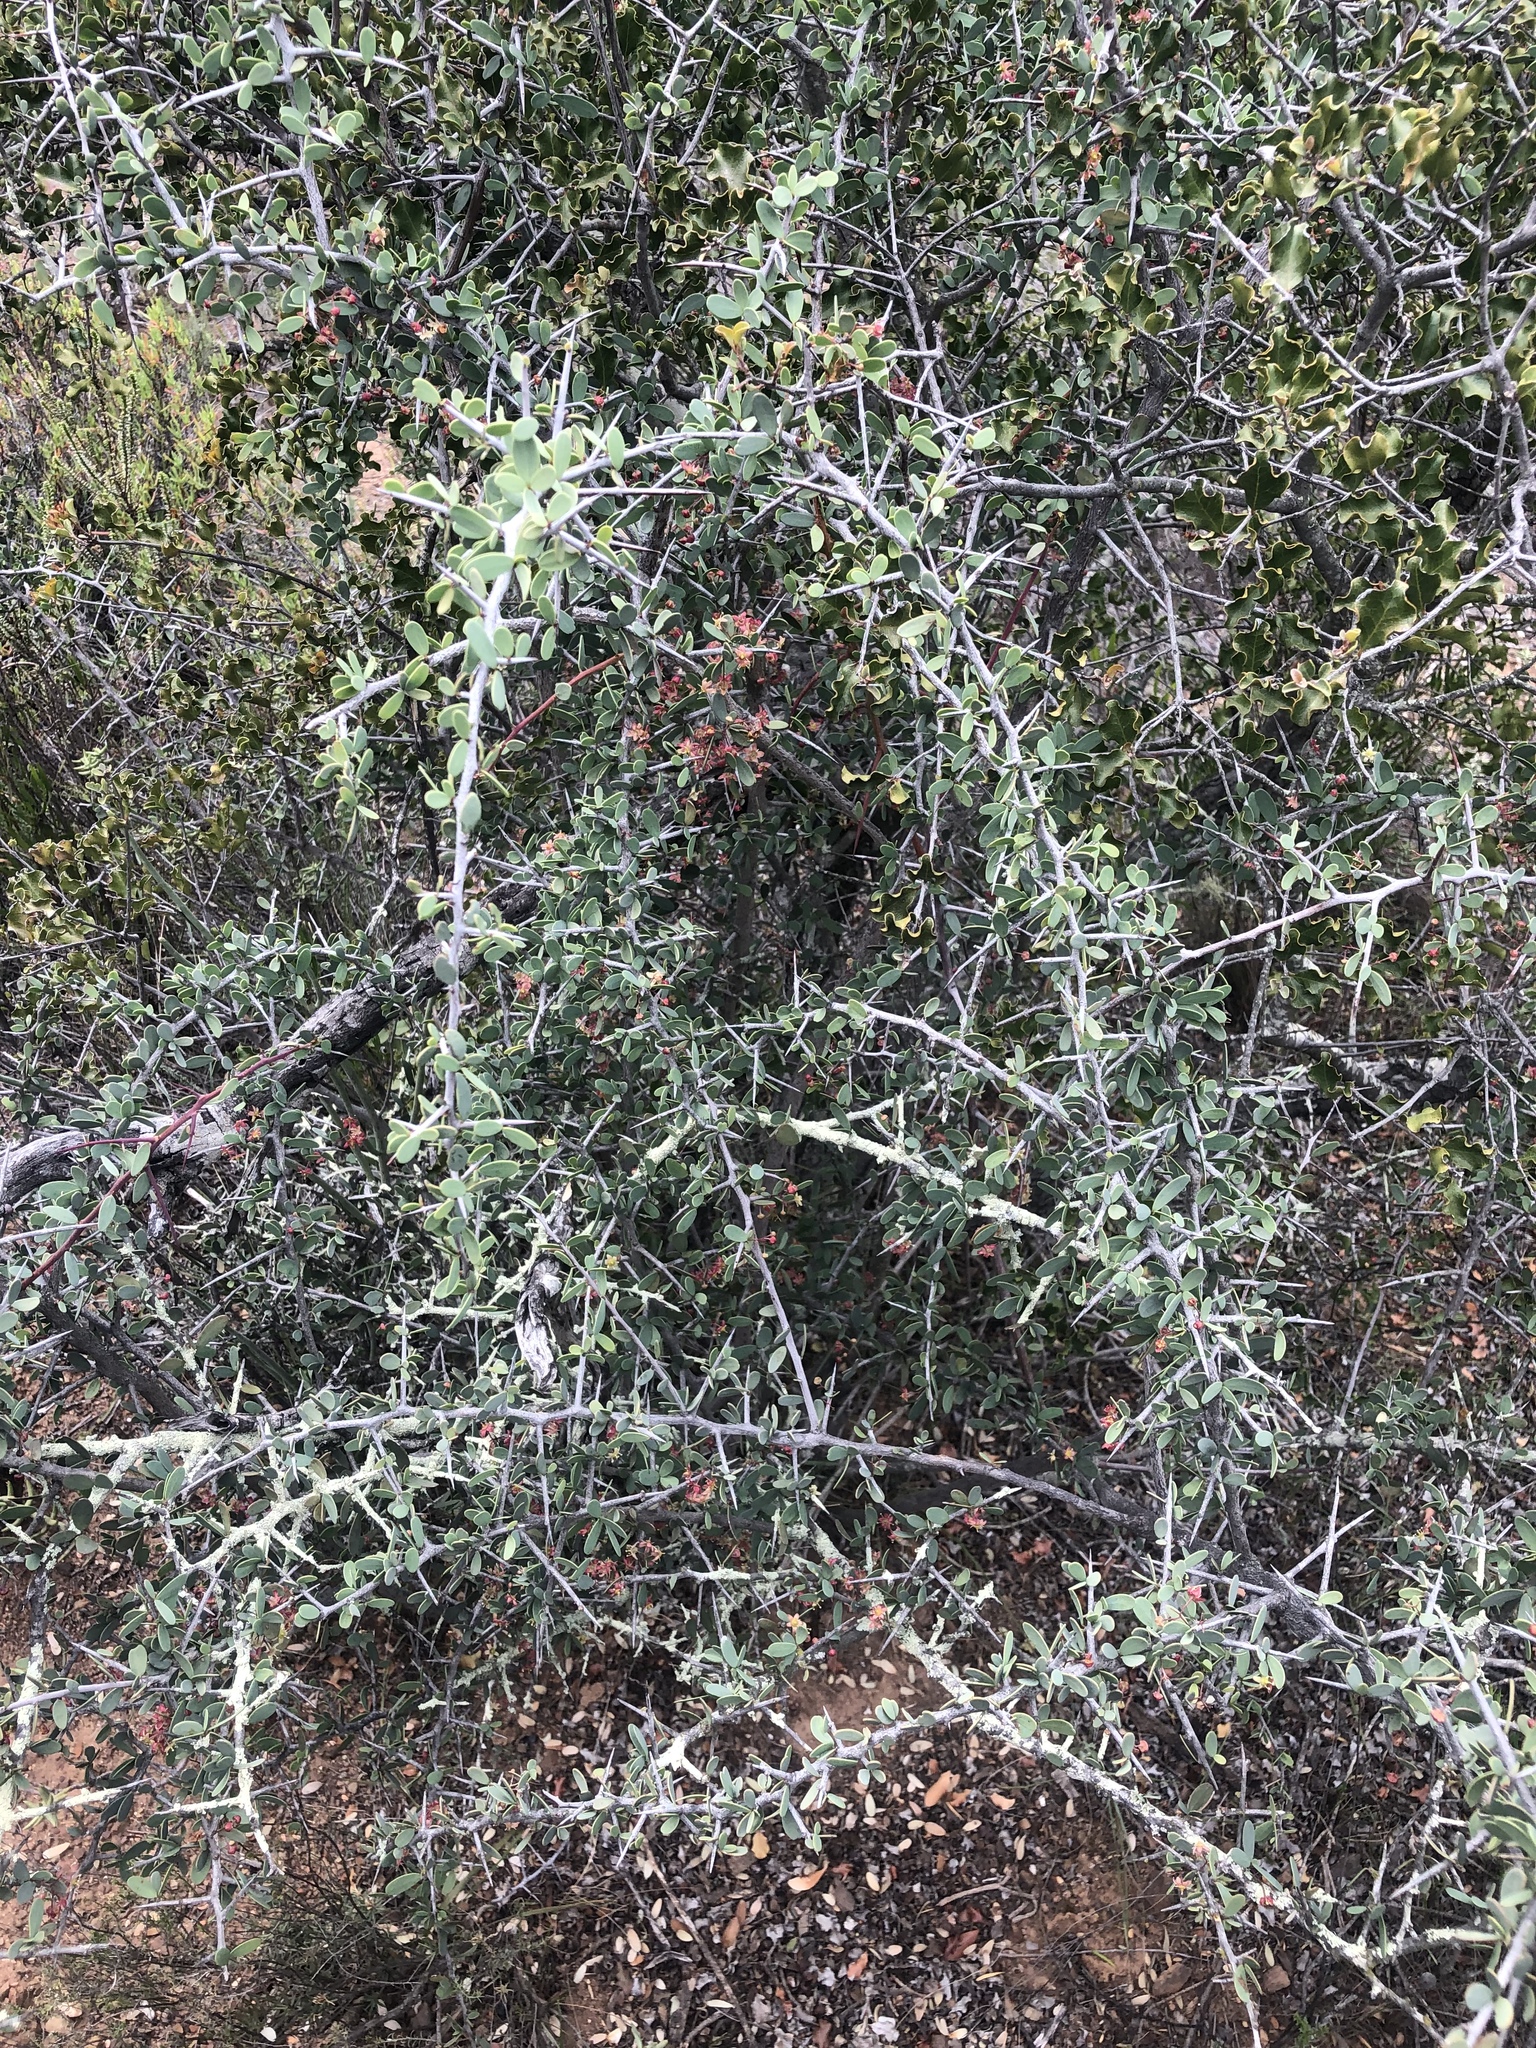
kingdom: Plantae
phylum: Tracheophyta
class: Magnoliopsida
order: Celastrales
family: Celastraceae
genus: Gloveria
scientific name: Gloveria integrifolia
